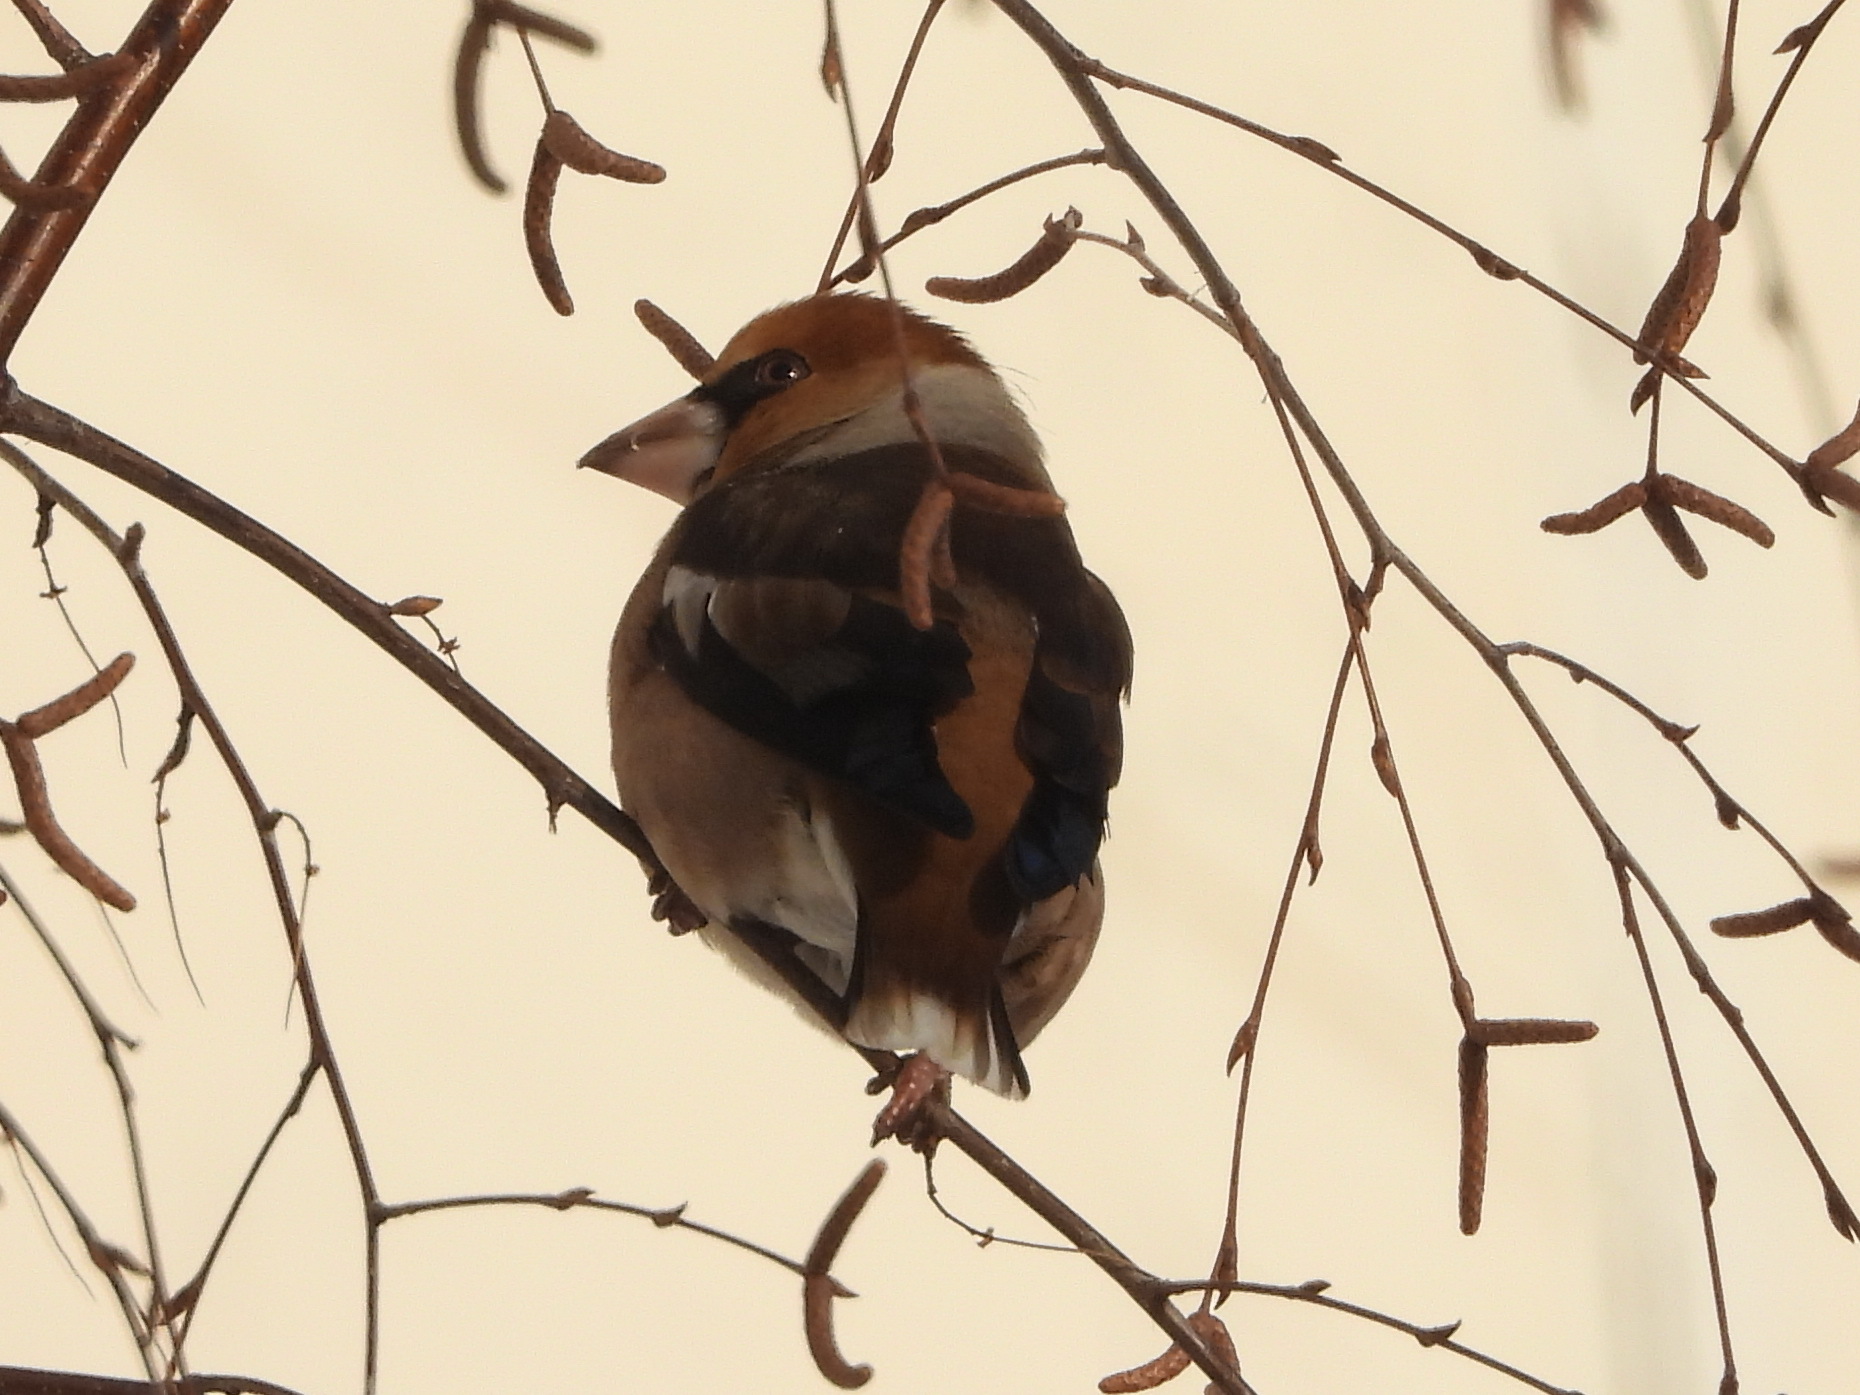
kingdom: Animalia
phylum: Chordata
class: Aves
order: Passeriformes
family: Fringillidae
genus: Coccothraustes
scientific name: Coccothraustes coccothraustes
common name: Hawfinch
